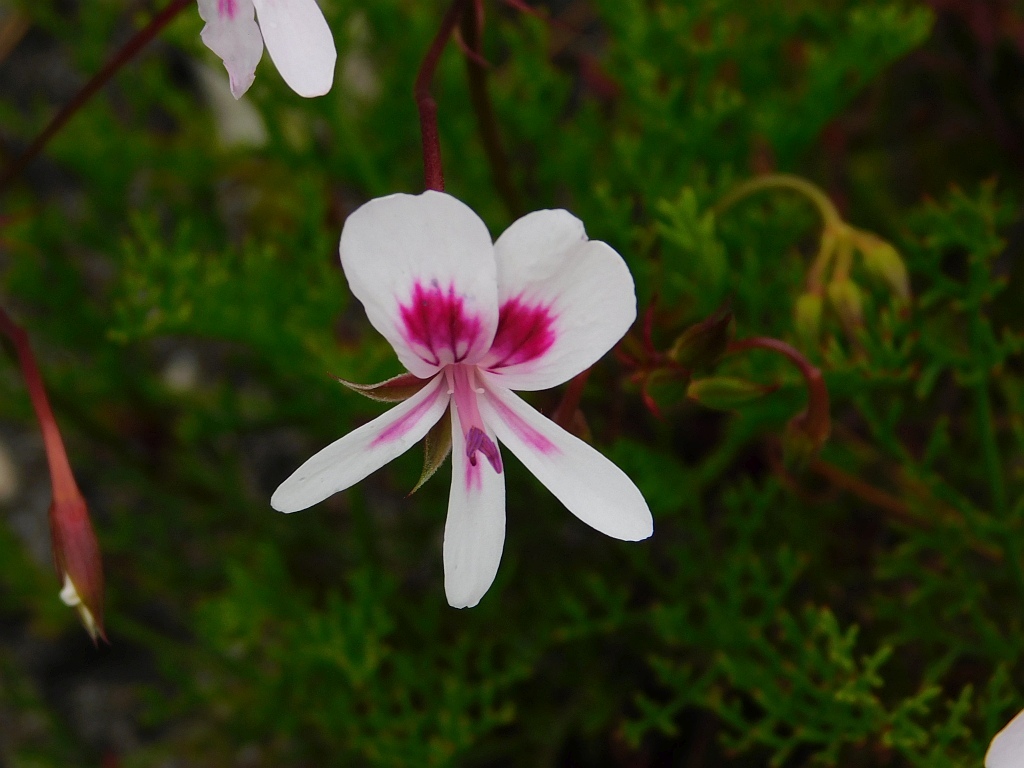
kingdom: Plantae
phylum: Tracheophyta
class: Magnoliopsida
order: Geraniales
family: Geraniaceae
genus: Pelargonium
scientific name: Pelargonium artemisiifolium
